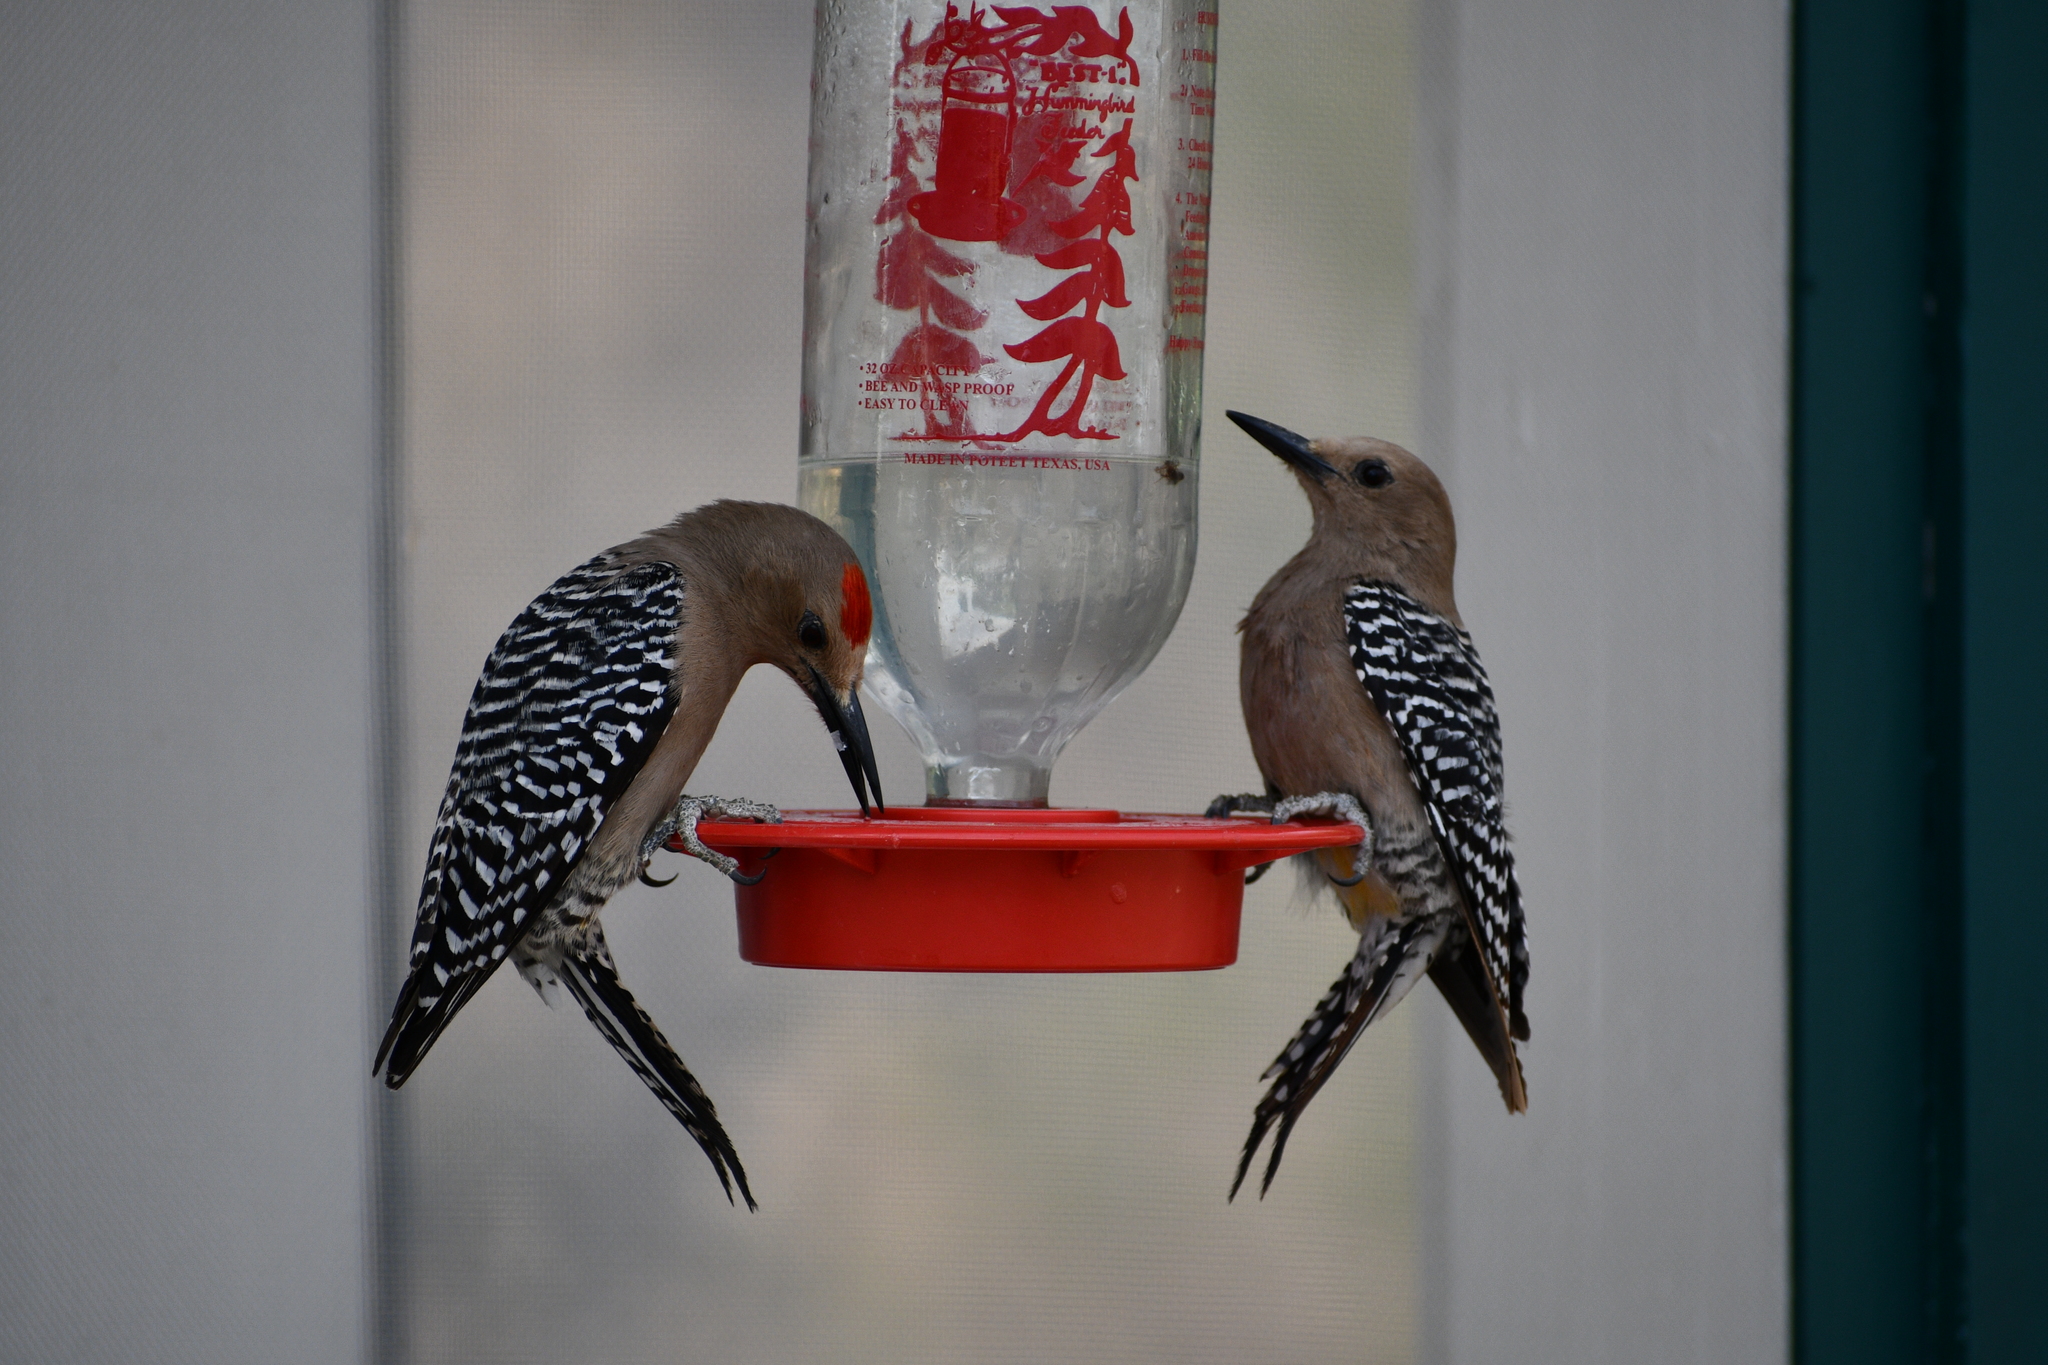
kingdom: Animalia
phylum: Chordata
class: Aves
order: Piciformes
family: Picidae
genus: Melanerpes
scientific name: Melanerpes uropygialis
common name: Gila woodpecker
